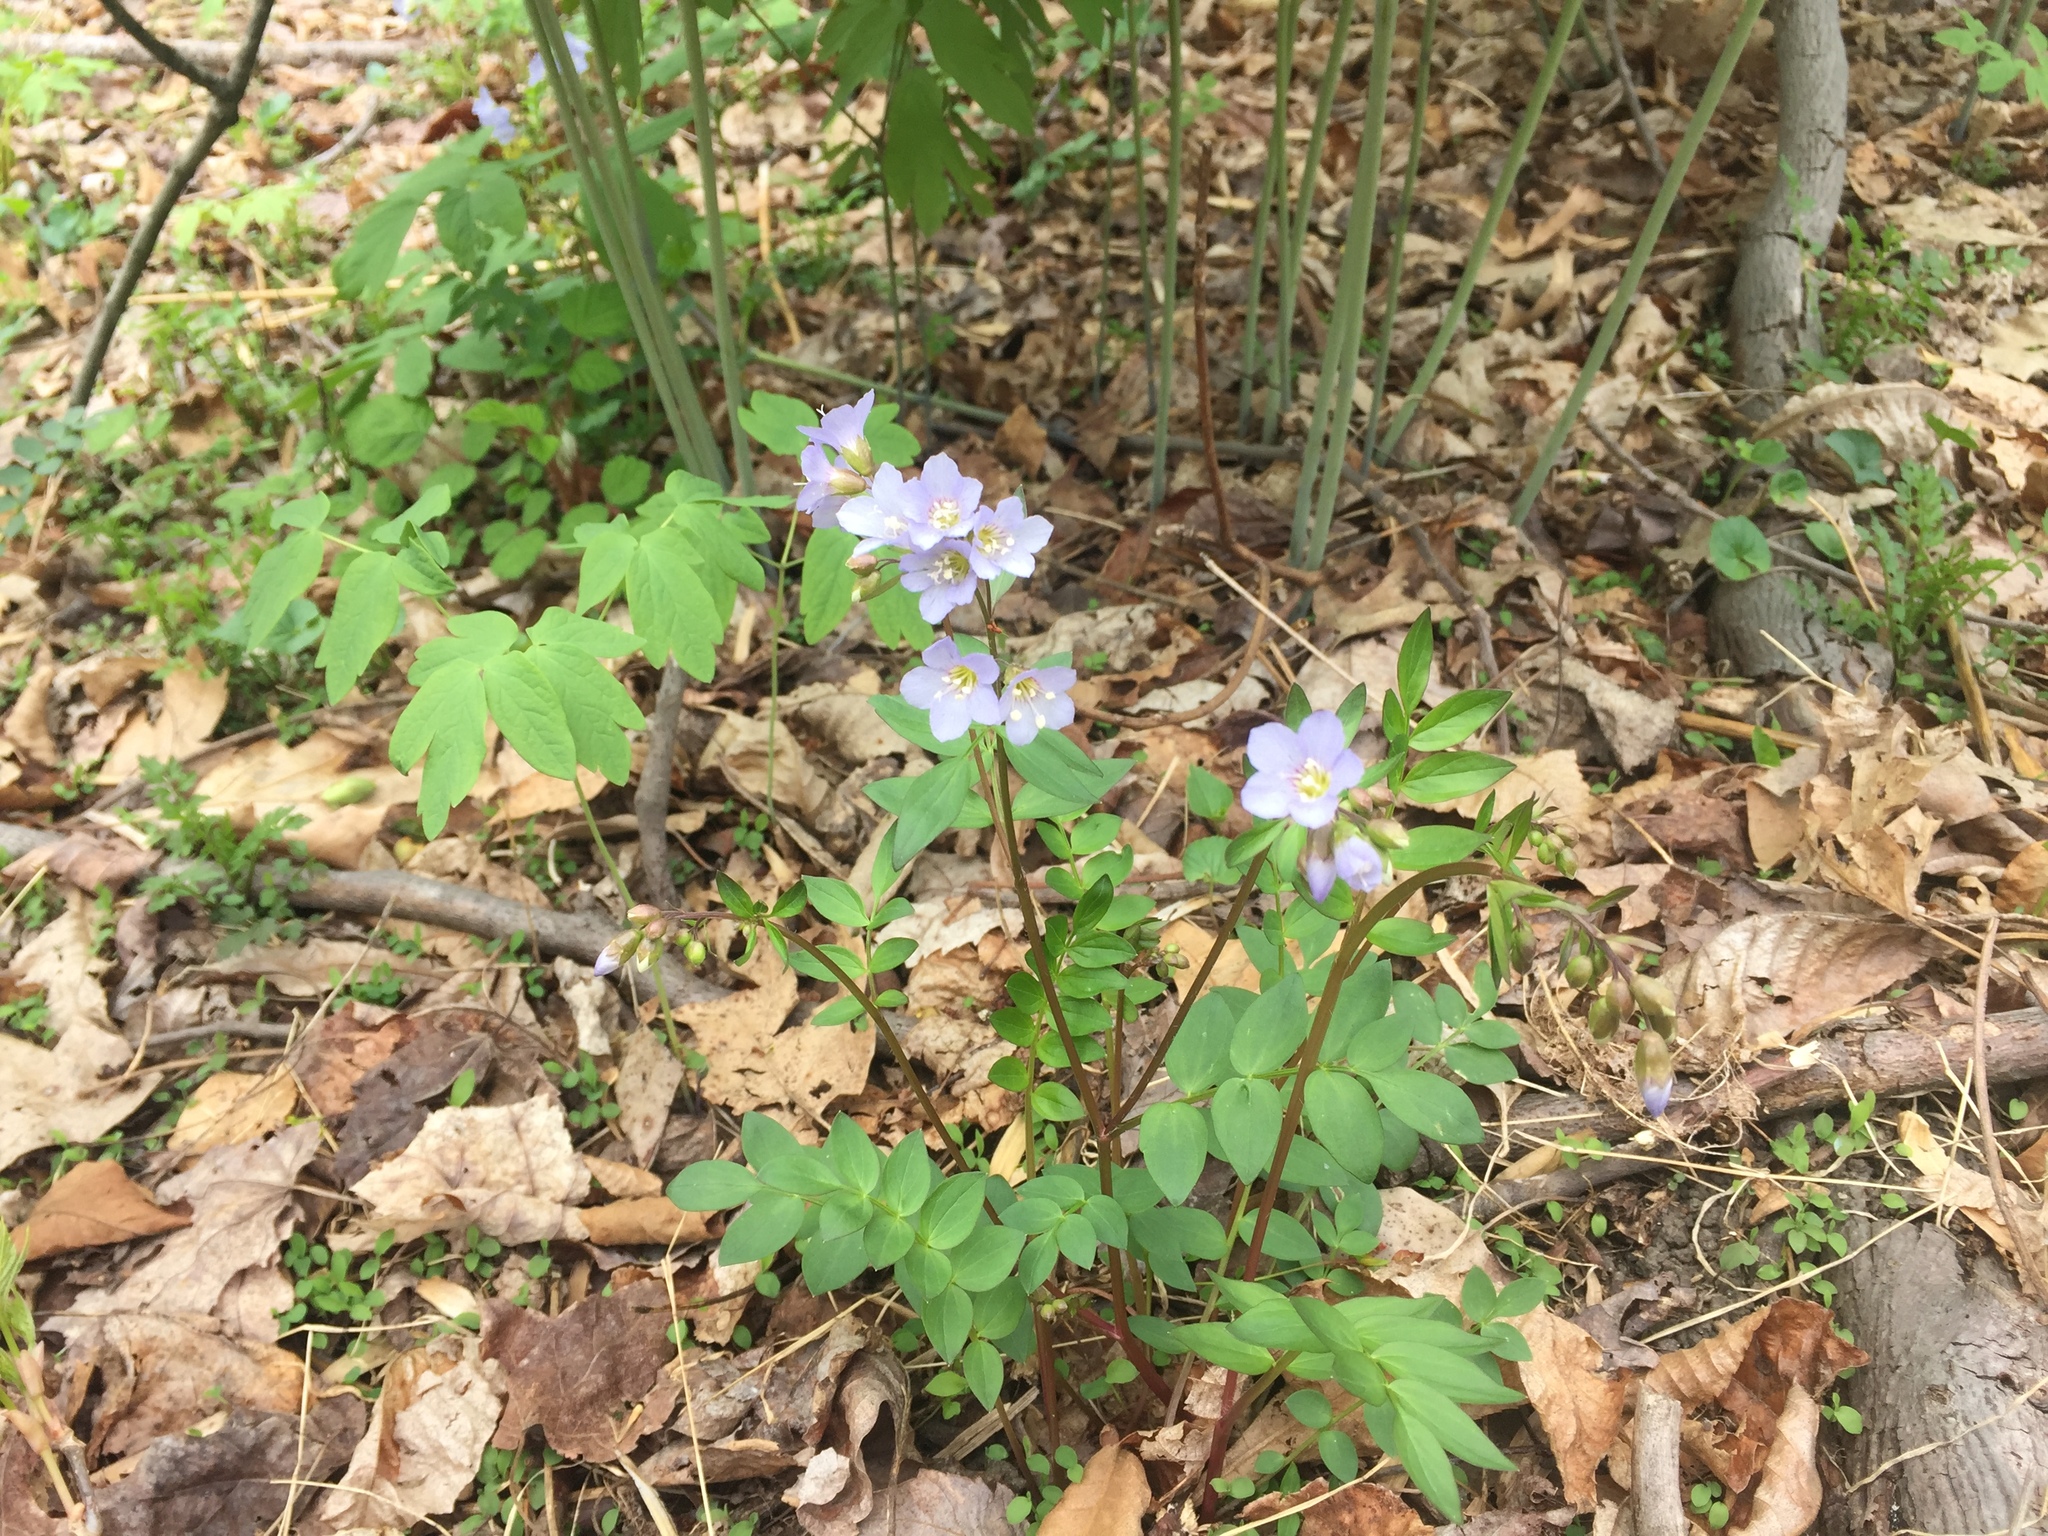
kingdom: Plantae
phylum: Tracheophyta
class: Magnoliopsida
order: Ericales
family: Polemoniaceae
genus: Polemonium
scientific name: Polemonium reptans
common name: Creeping jacob's-ladder
